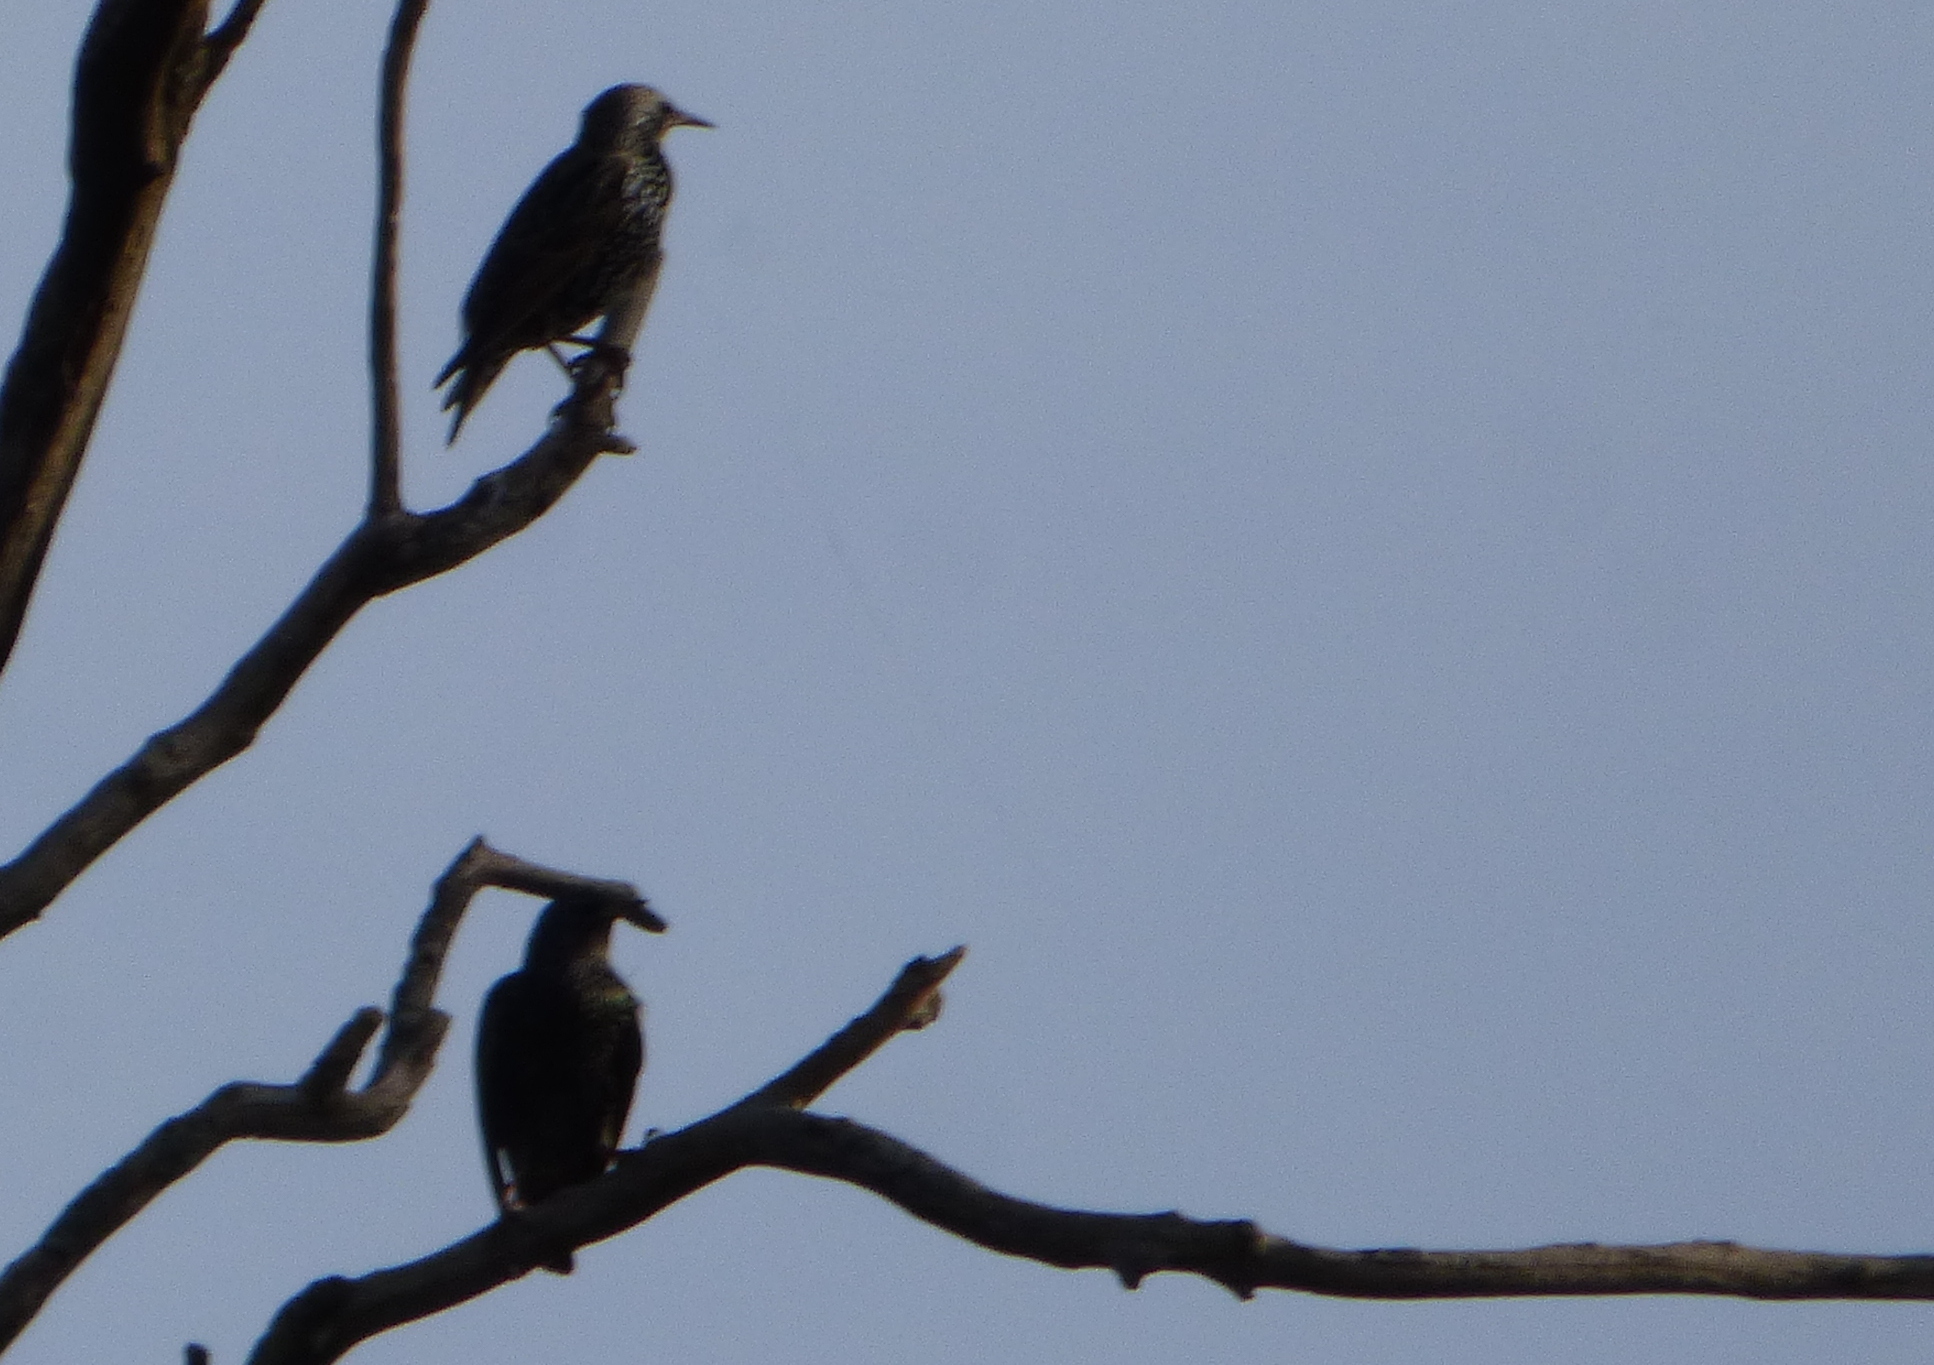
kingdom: Animalia
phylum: Chordata
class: Aves
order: Passeriformes
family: Sturnidae
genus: Sturnus
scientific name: Sturnus vulgaris
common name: Common starling
